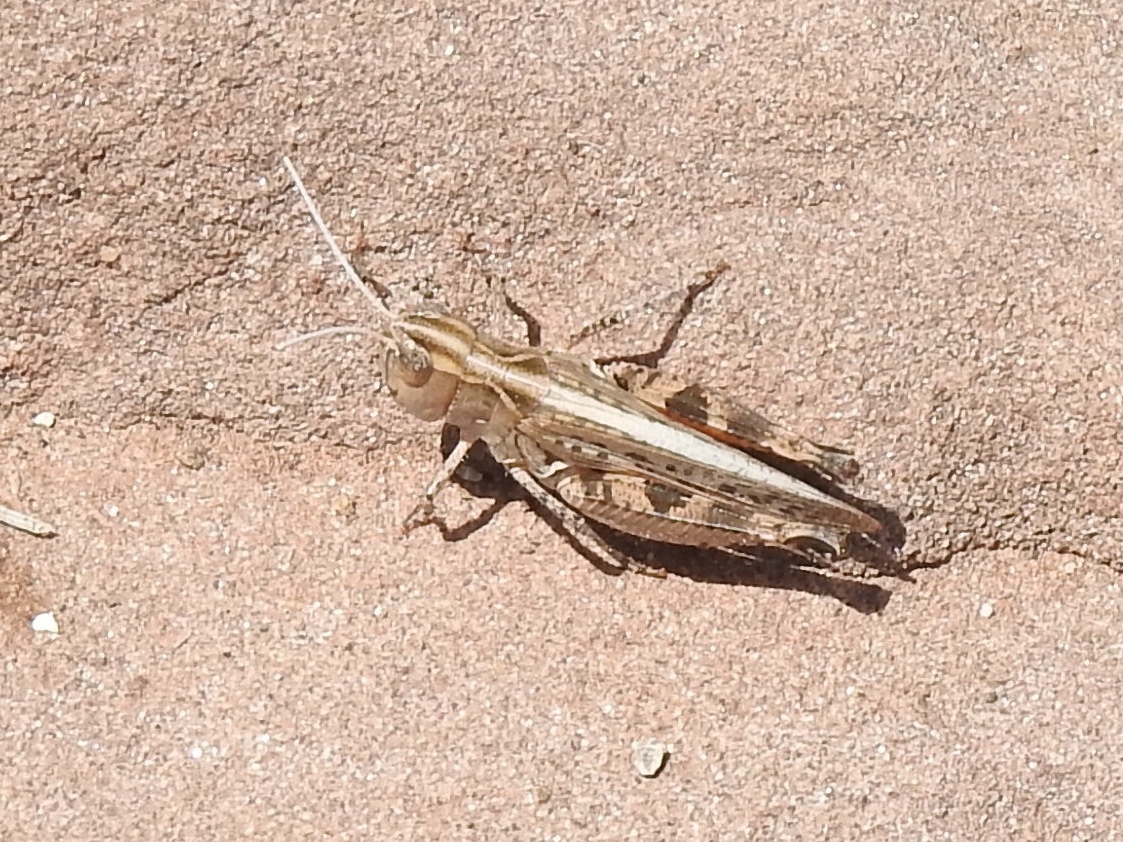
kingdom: Animalia
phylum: Arthropoda
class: Insecta
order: Orthoptera
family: Acrididae
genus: Ageneotettix
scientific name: Ageneotettix deorum
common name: White-whiskered grasshopper
